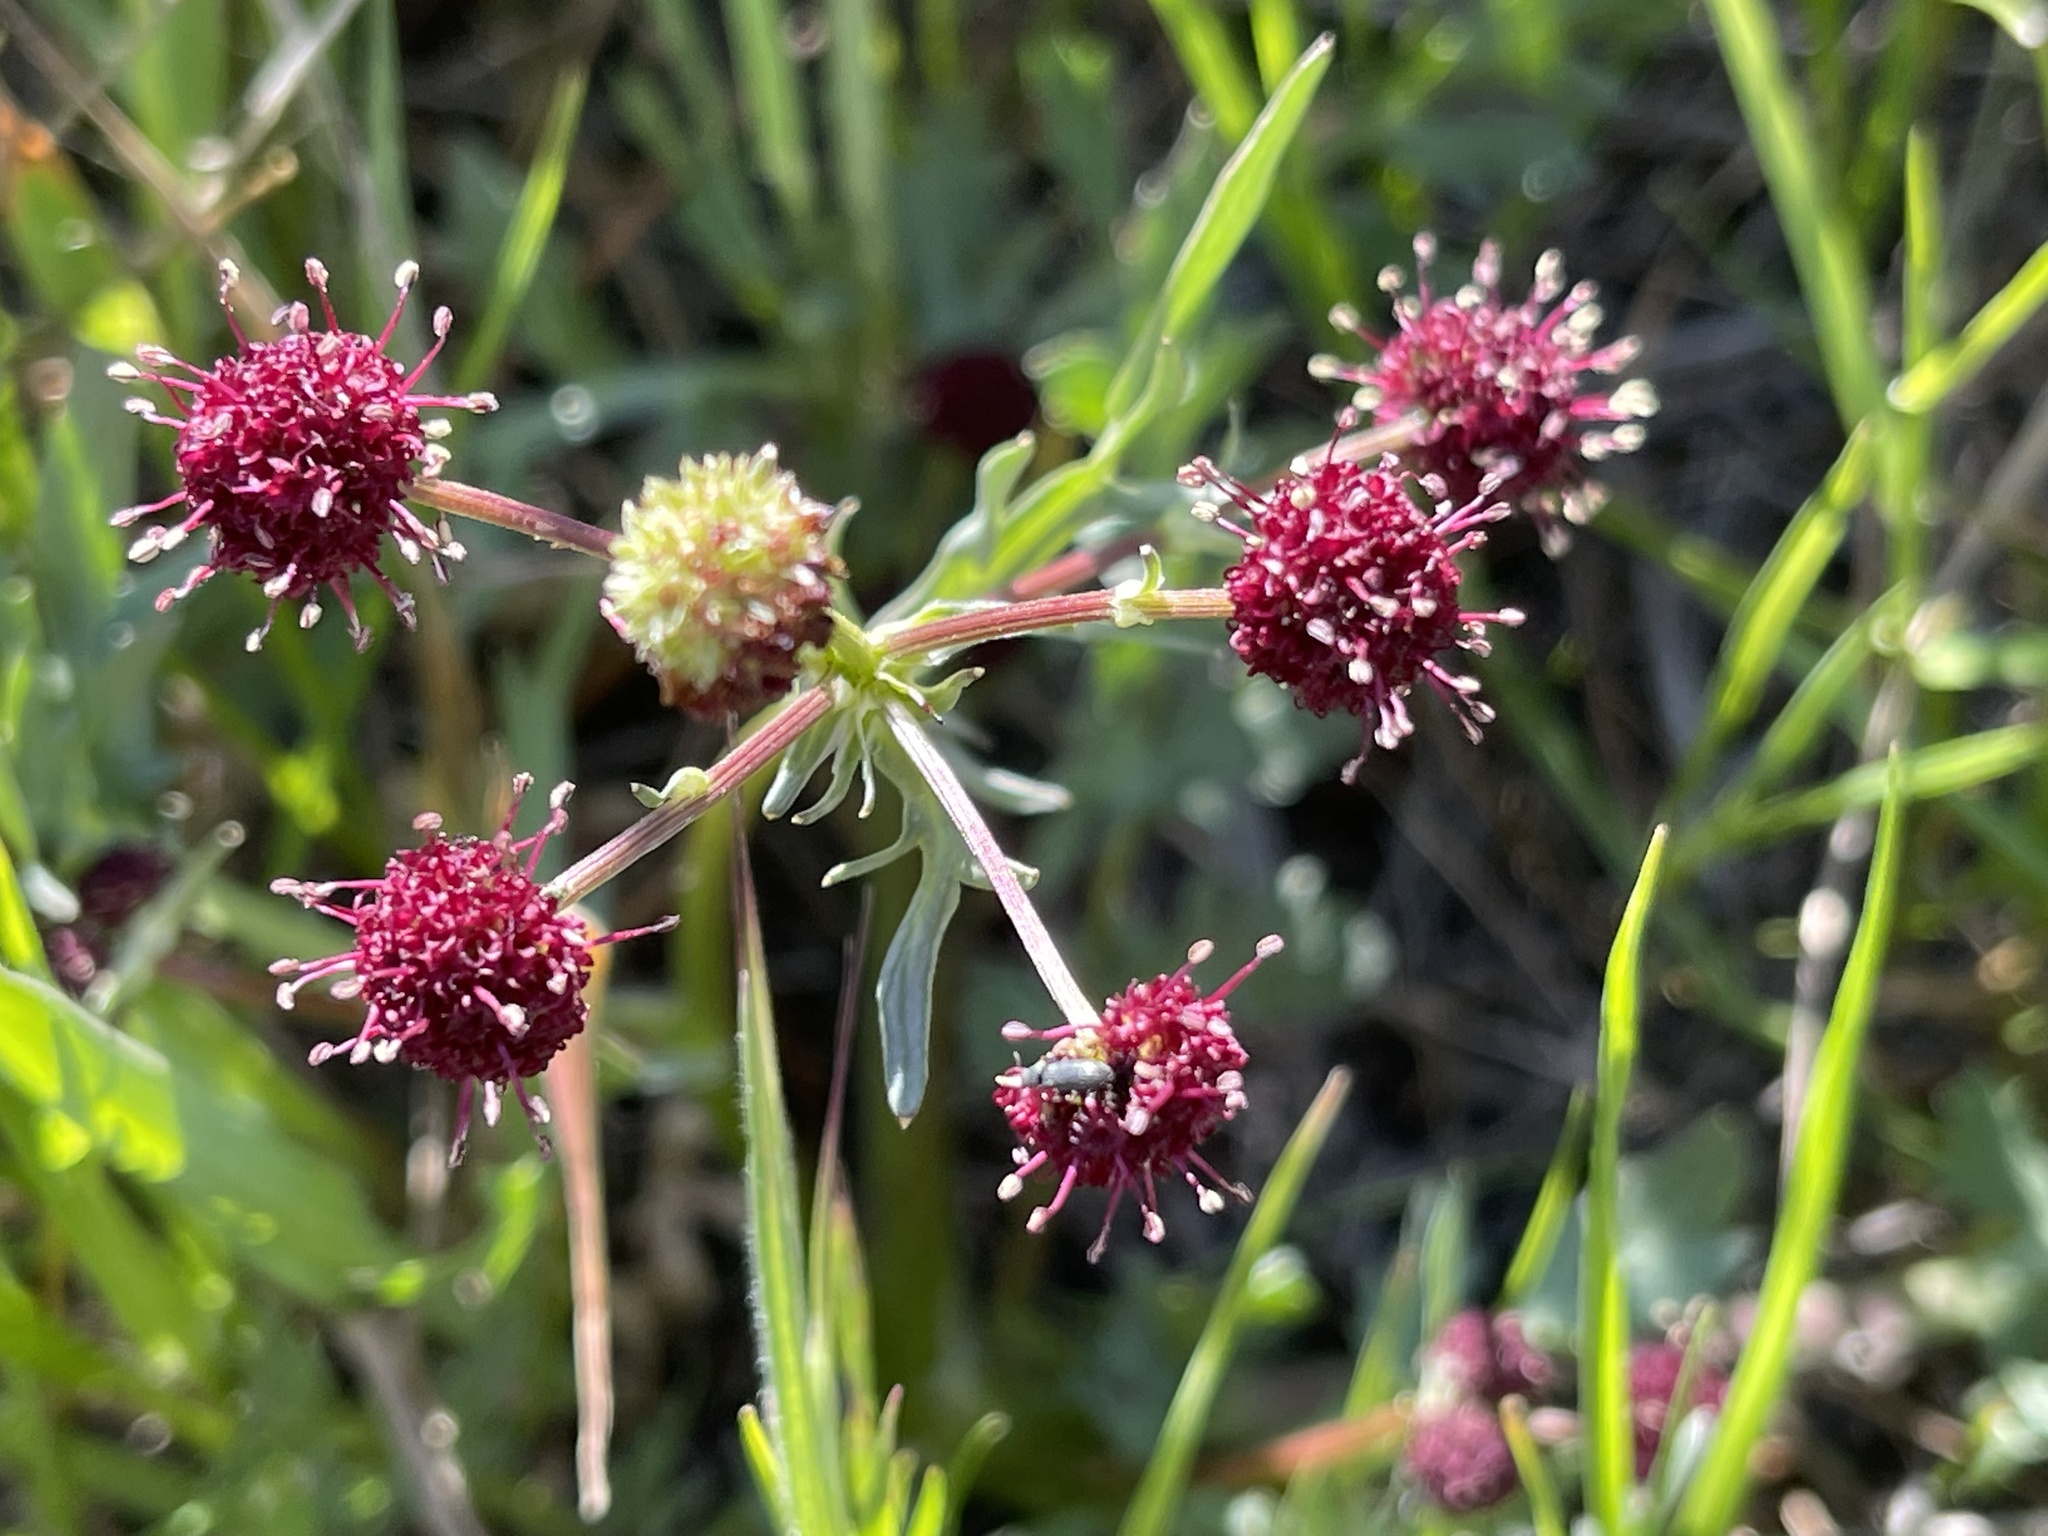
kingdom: Plantae
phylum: Tracheophyta
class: Magnoliopsida
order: Apiales
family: Apiaceae
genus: Sanicula
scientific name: Sanicula bipinnatifida
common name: Shoe-buttons
